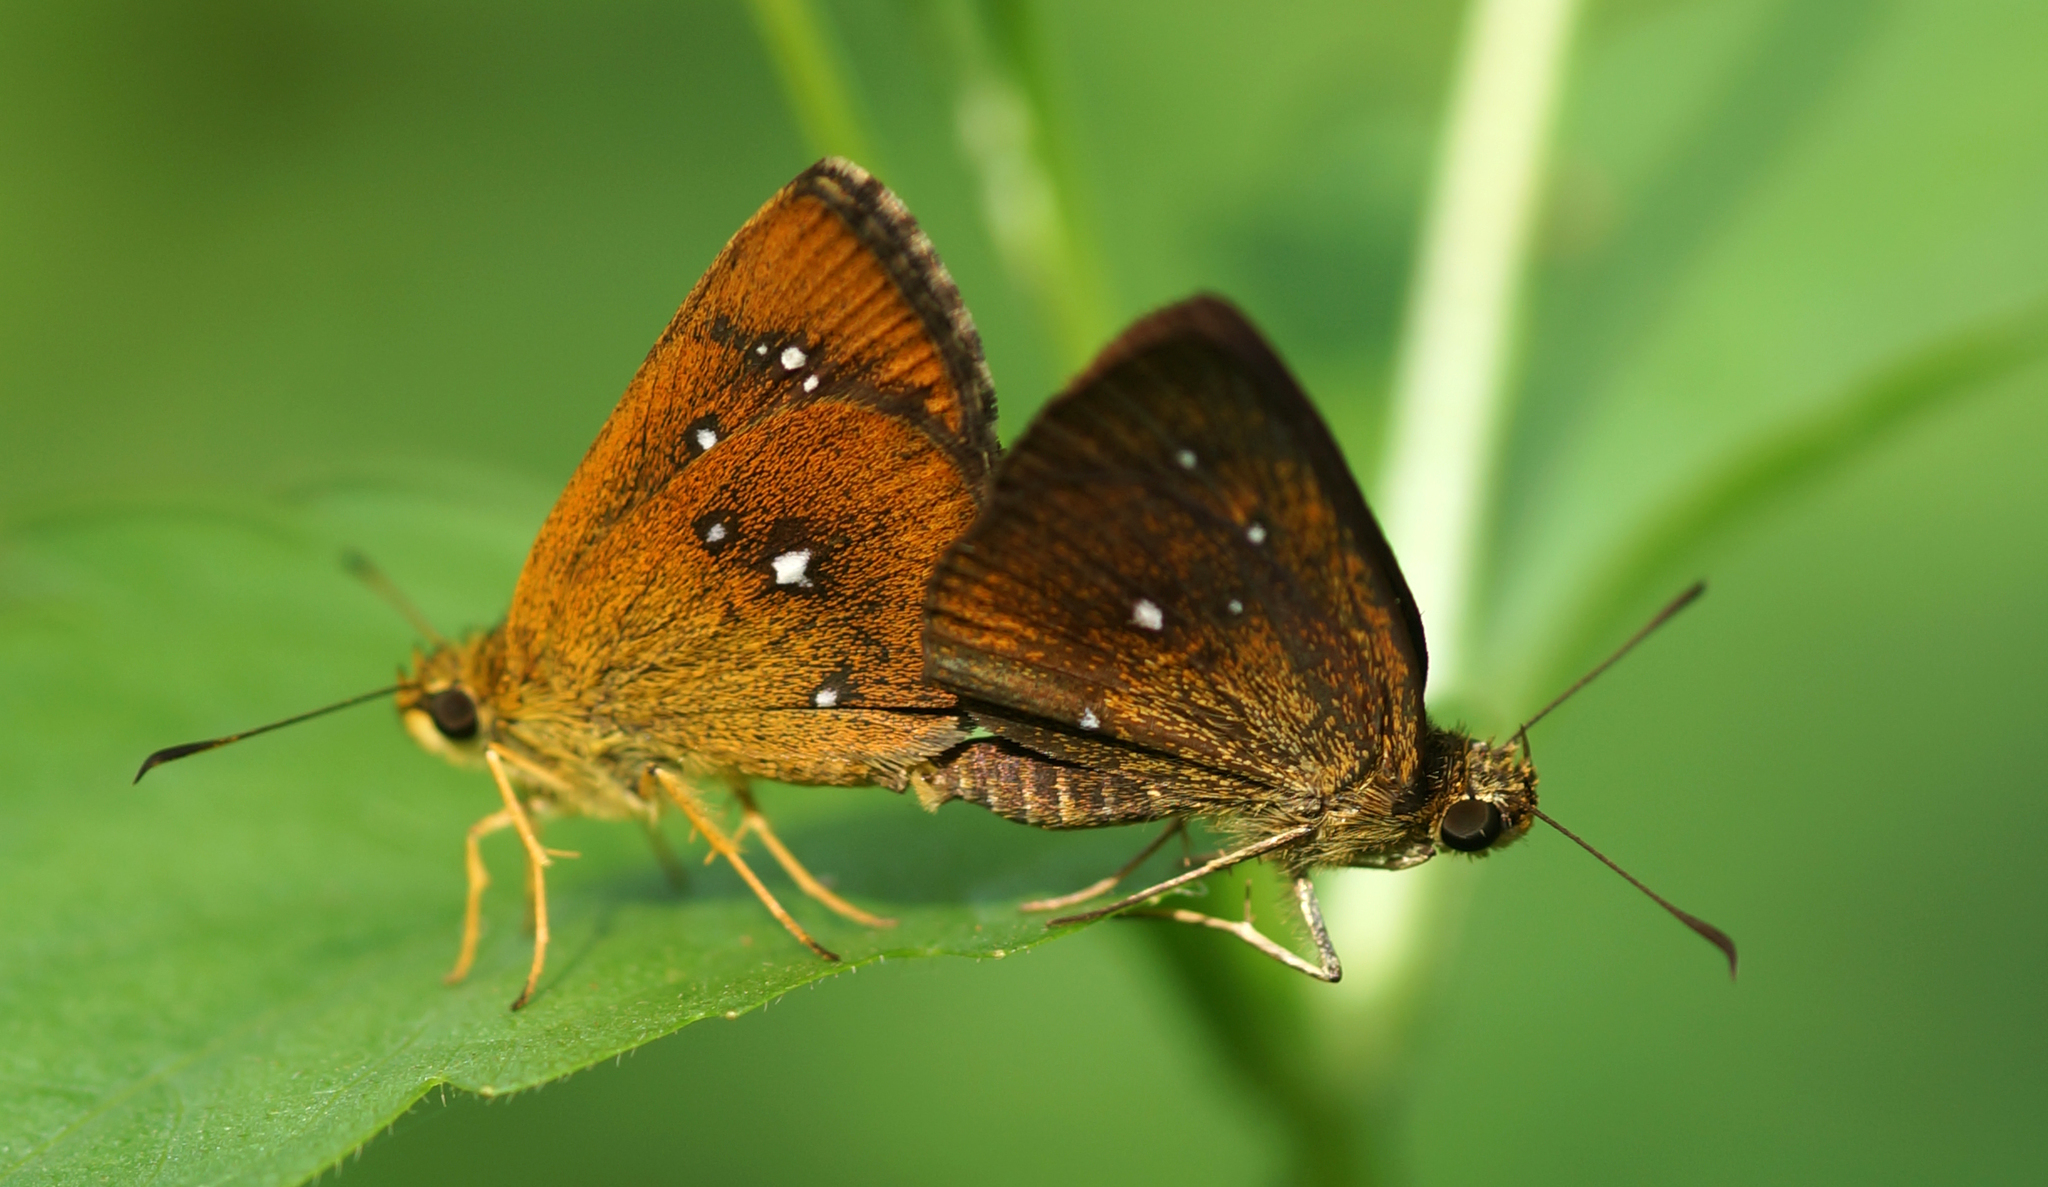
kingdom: Animalia
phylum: Arthropoda
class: Insecta
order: Lepidoptera
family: Hesperiidae
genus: Iambrix
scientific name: Iambrix salsala
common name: Chestnut bob
